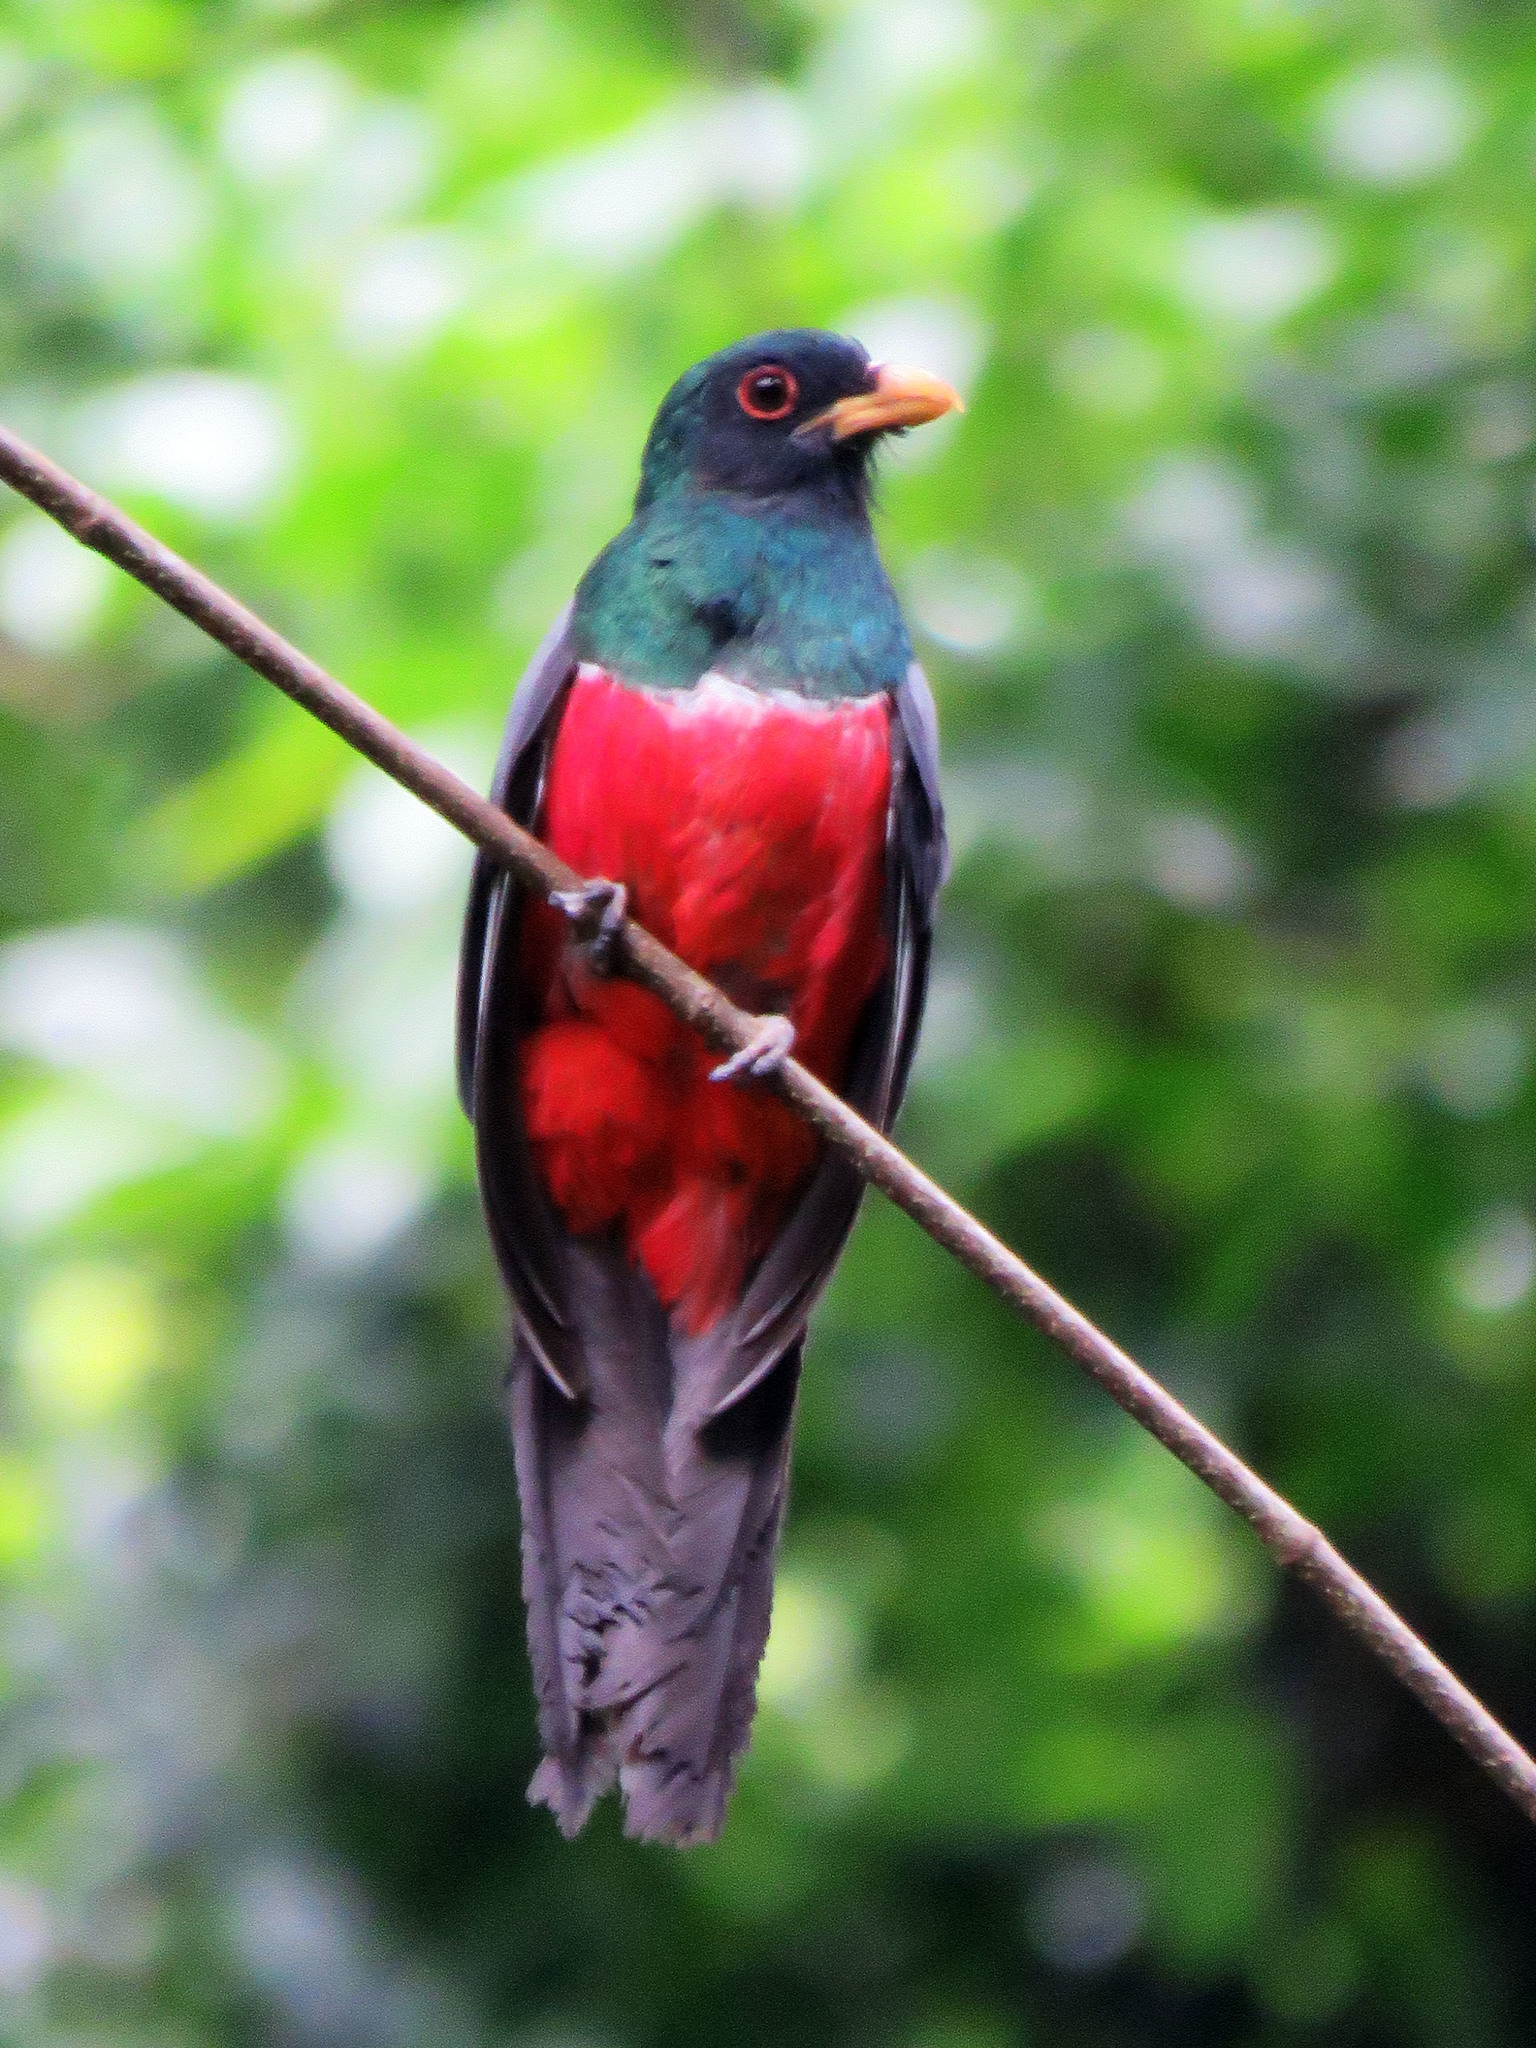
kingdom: Animalia
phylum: Chordata
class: Aves
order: Trogoniformes
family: Trogonidae
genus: Trogon
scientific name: Trogon melanurus
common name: Black-tailed trogon
